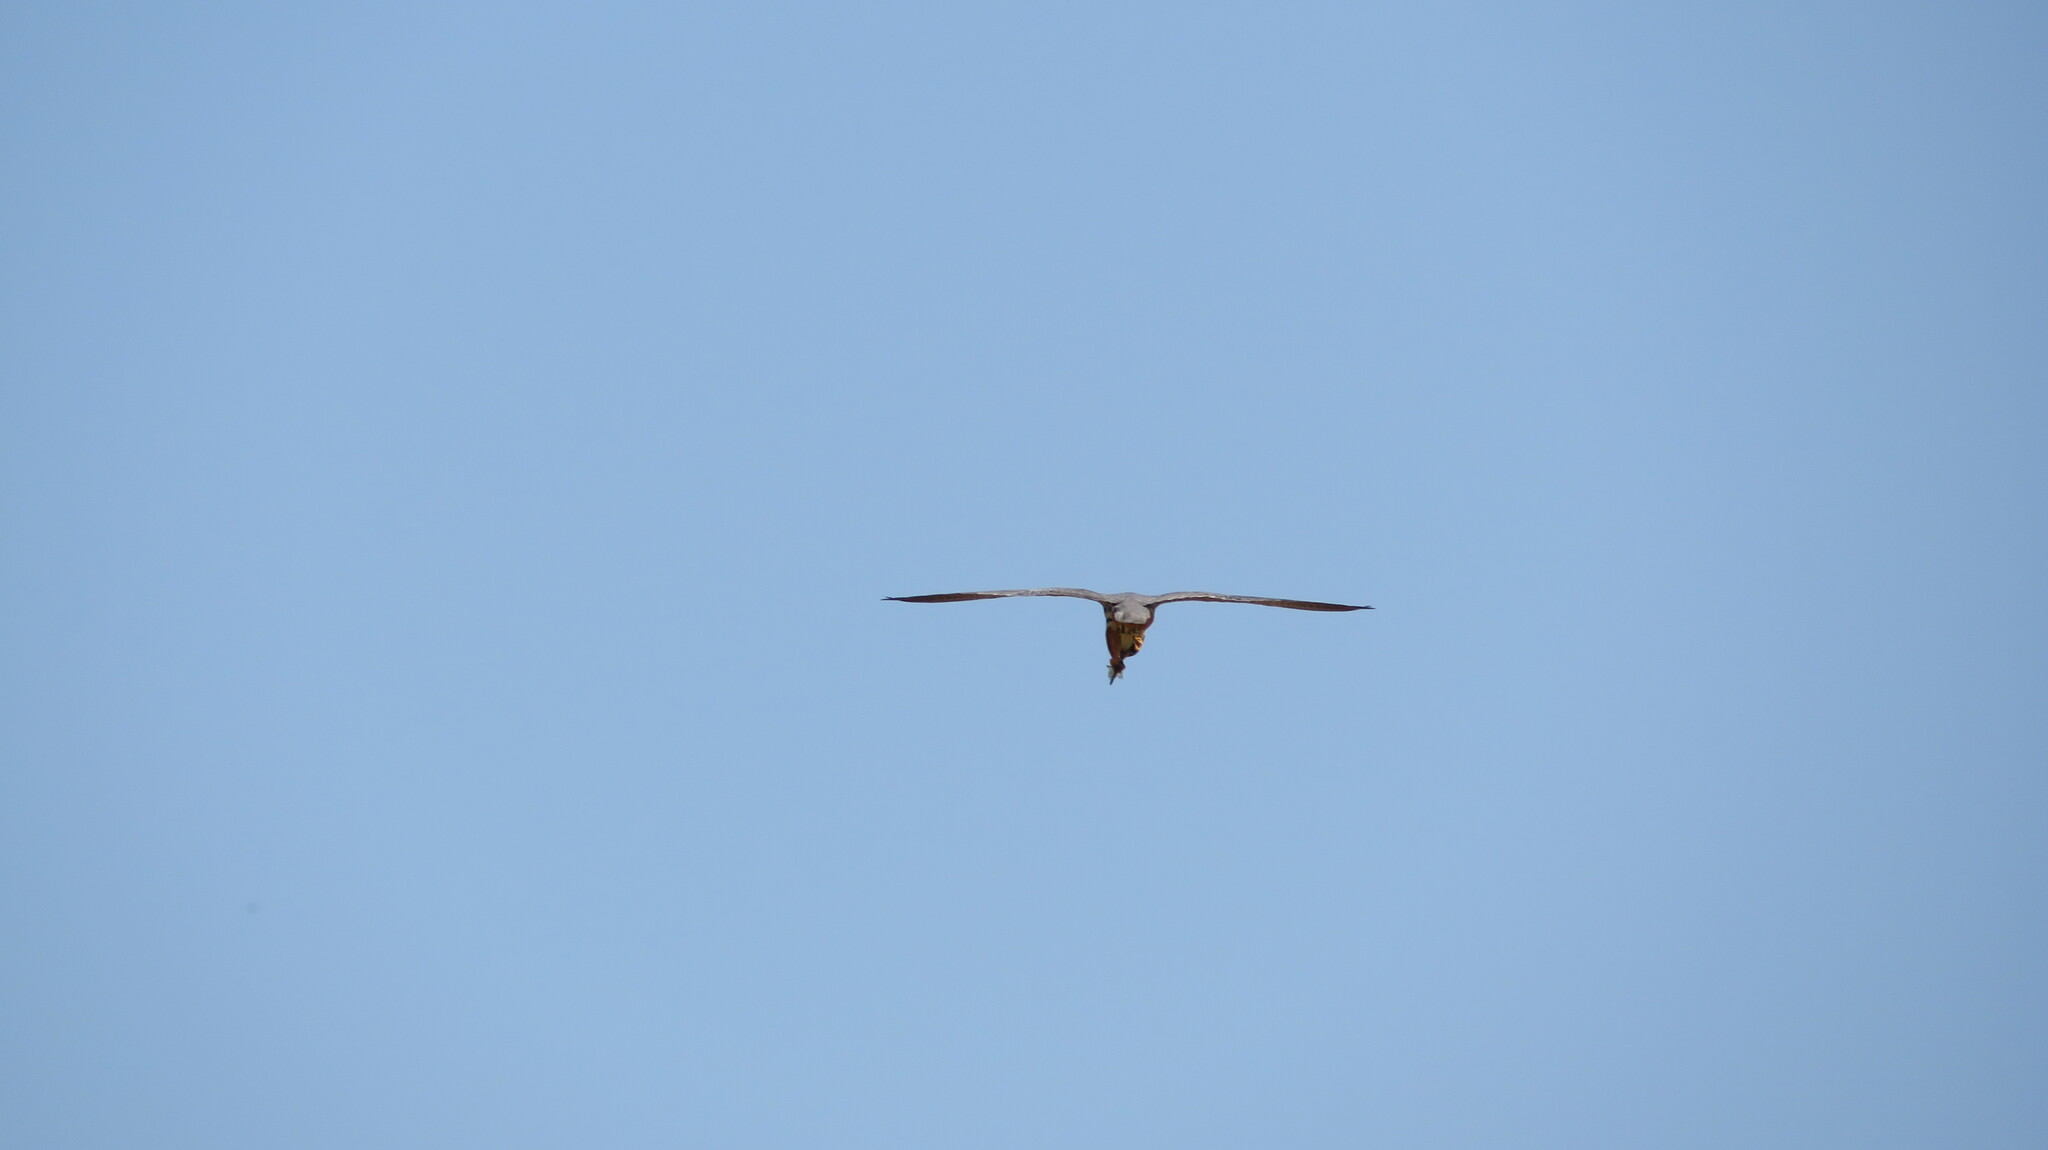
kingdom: Animalia
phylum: Chordata
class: Aves
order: Falconiformes
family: Falconidae
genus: Falco
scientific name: Falco subbuteo
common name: Eurasian hobby
